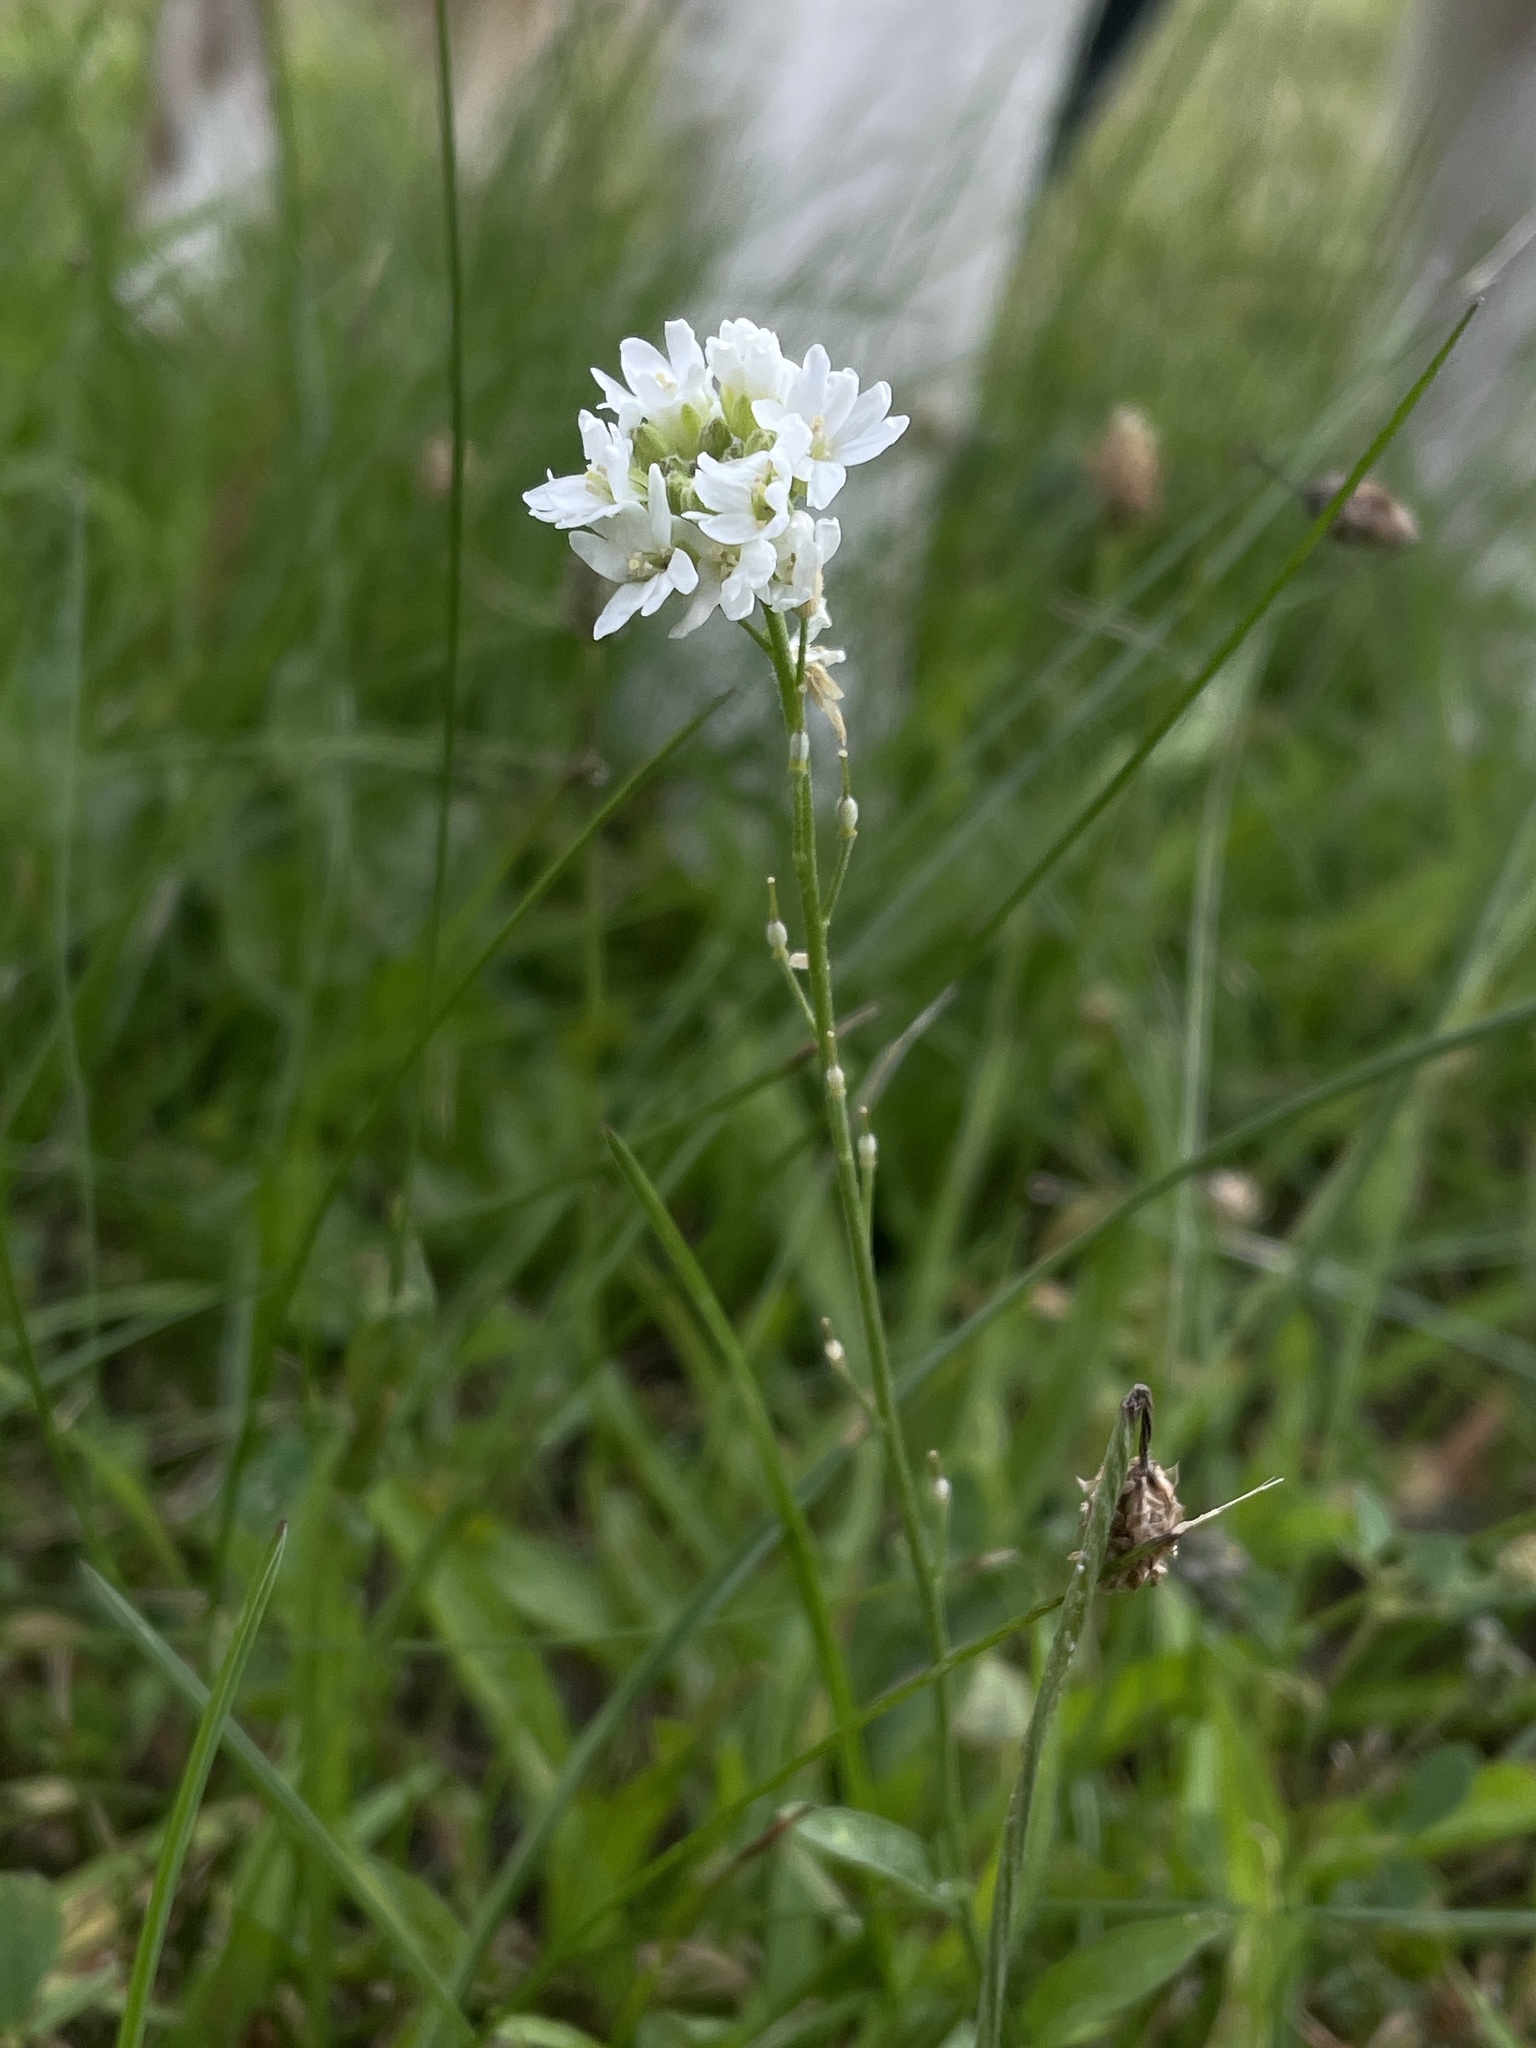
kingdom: Plantae
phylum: Tracheophyta
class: Magnoliopsida
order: Brassicales
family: Brassicaceae
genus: Berteroa
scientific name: Berteroa incana
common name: Hoary alison
